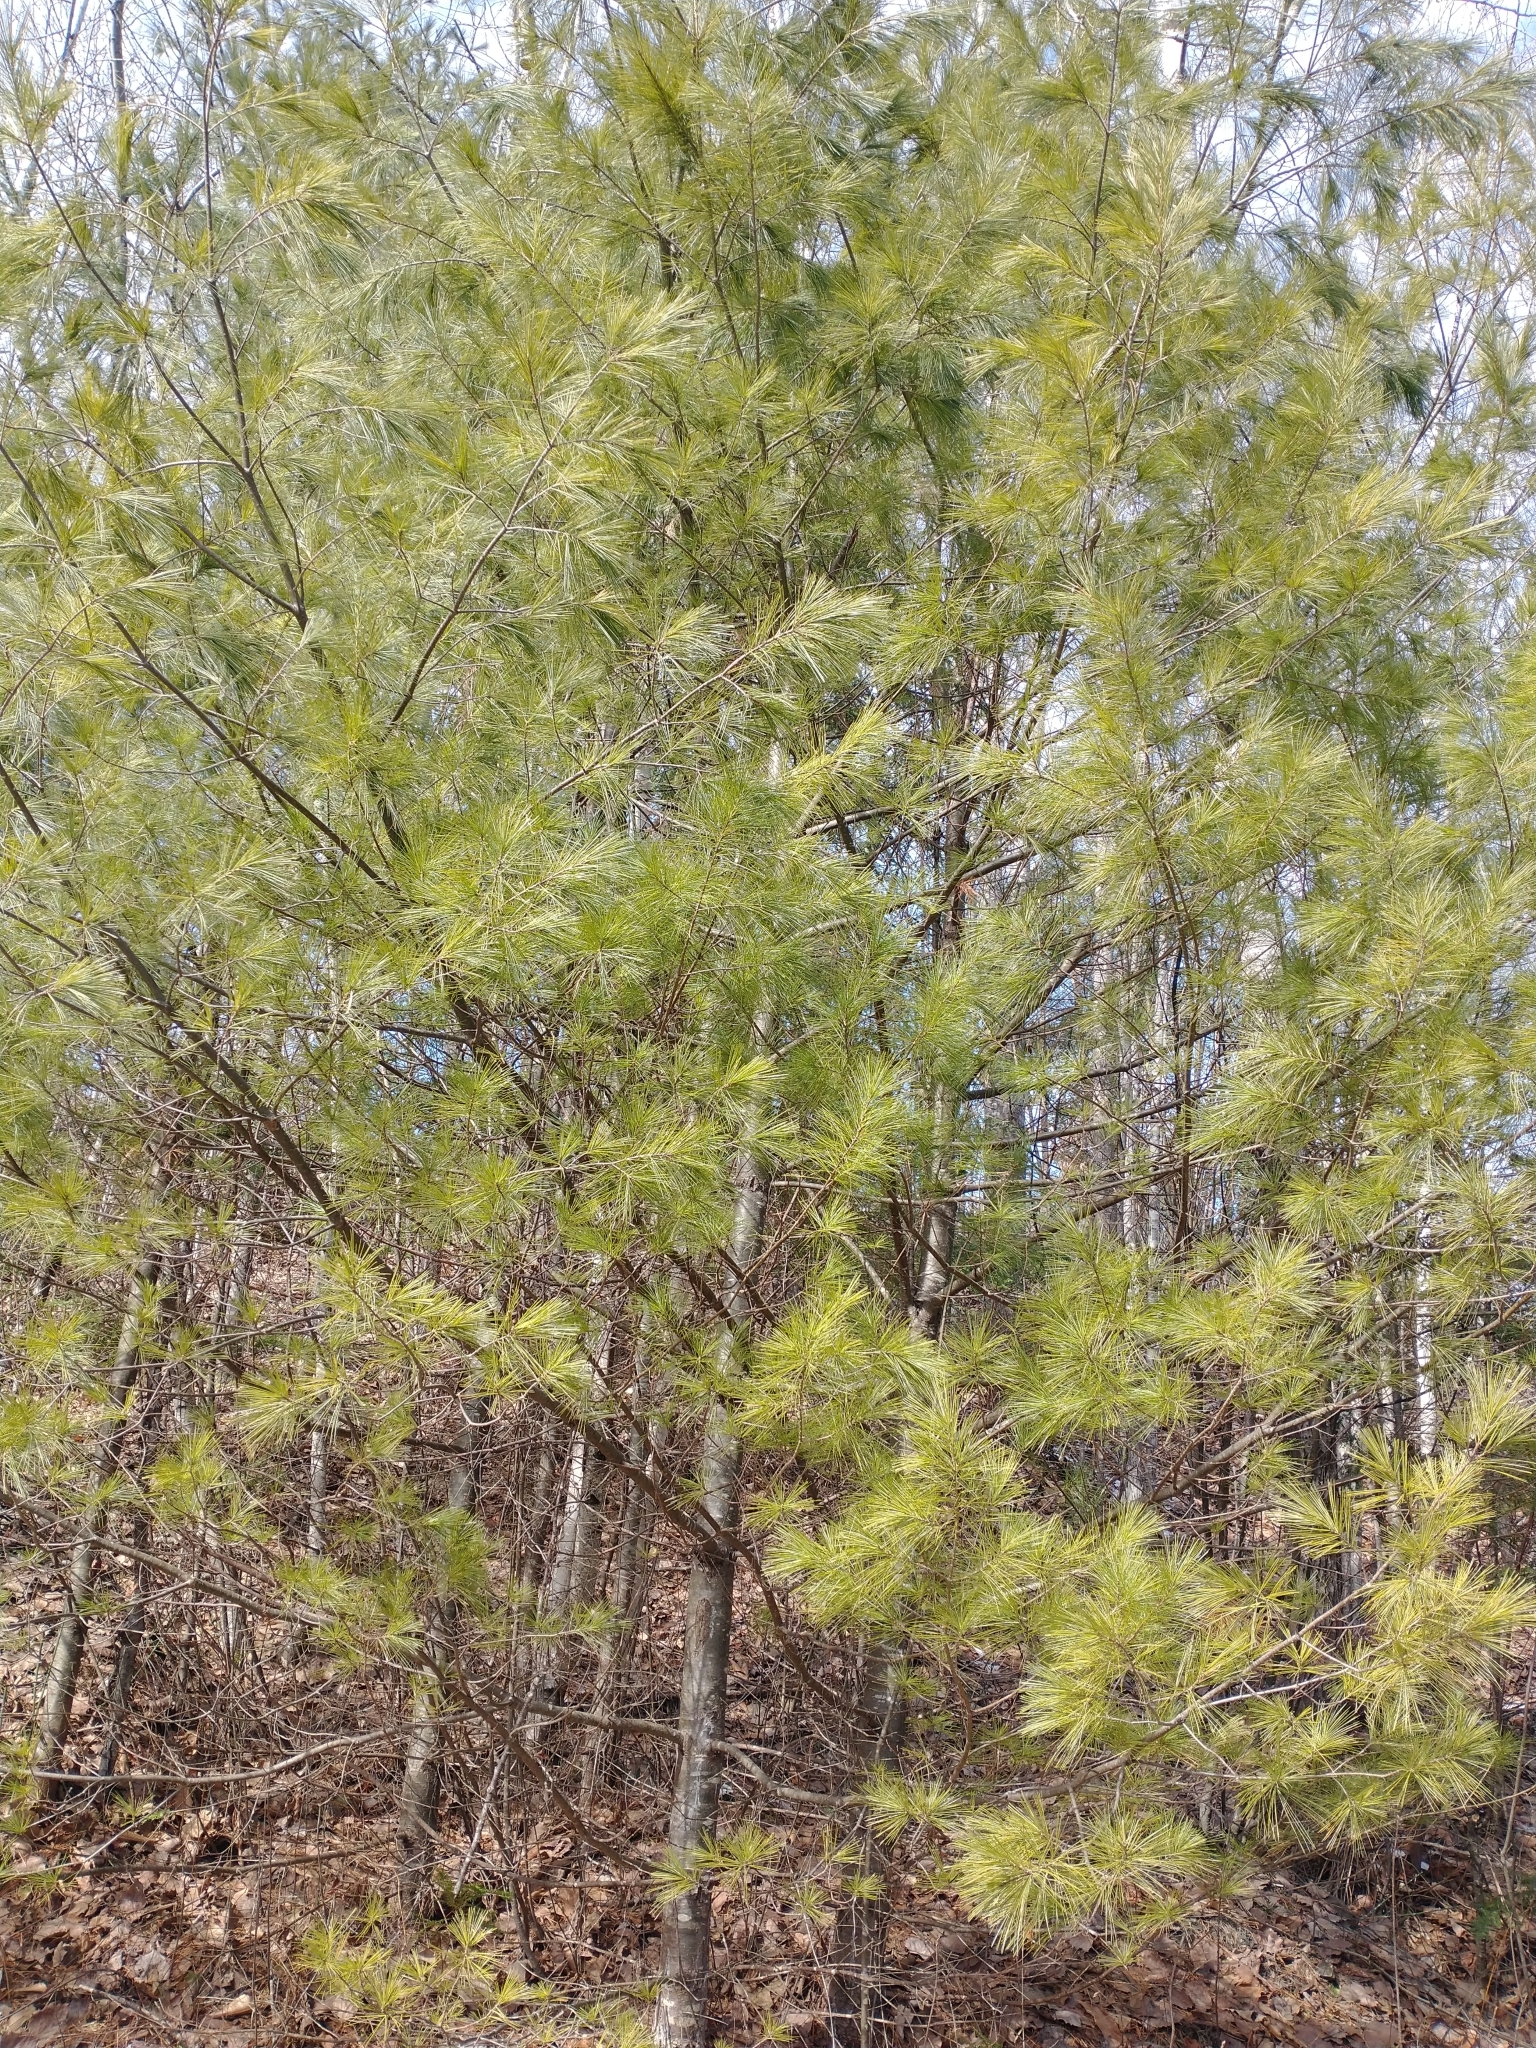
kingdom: Plantae
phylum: Tracheophyta
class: Pinopsida
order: Pinales
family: Pinaceae
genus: Pinus
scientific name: Pinus strobus
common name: Weymouth pine
